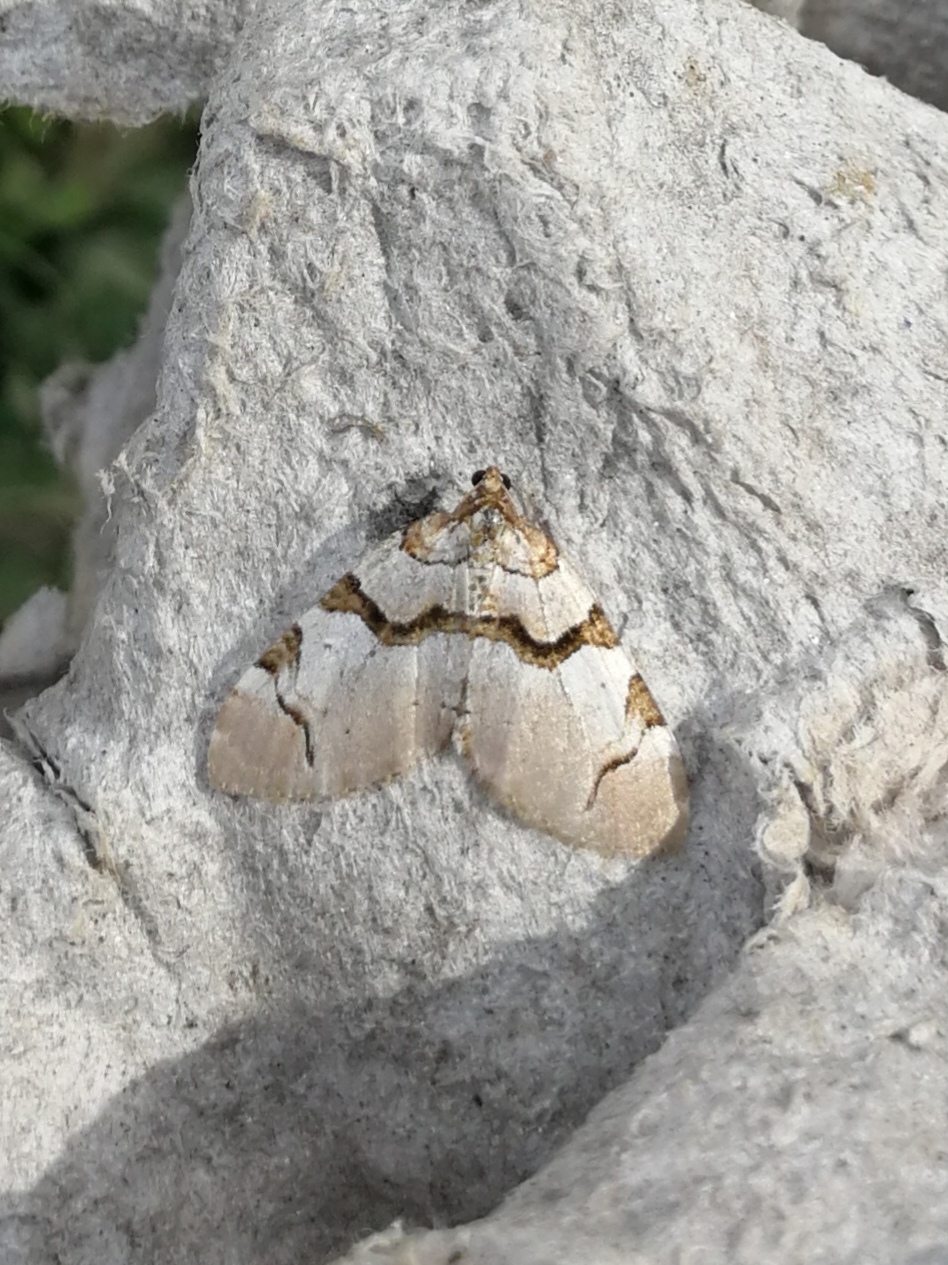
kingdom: Animalia
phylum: Arthropoda
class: Insecta
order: Lepidoptera
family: Geometridae
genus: Anticlea
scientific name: Anticlea derivata
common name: Streamer
